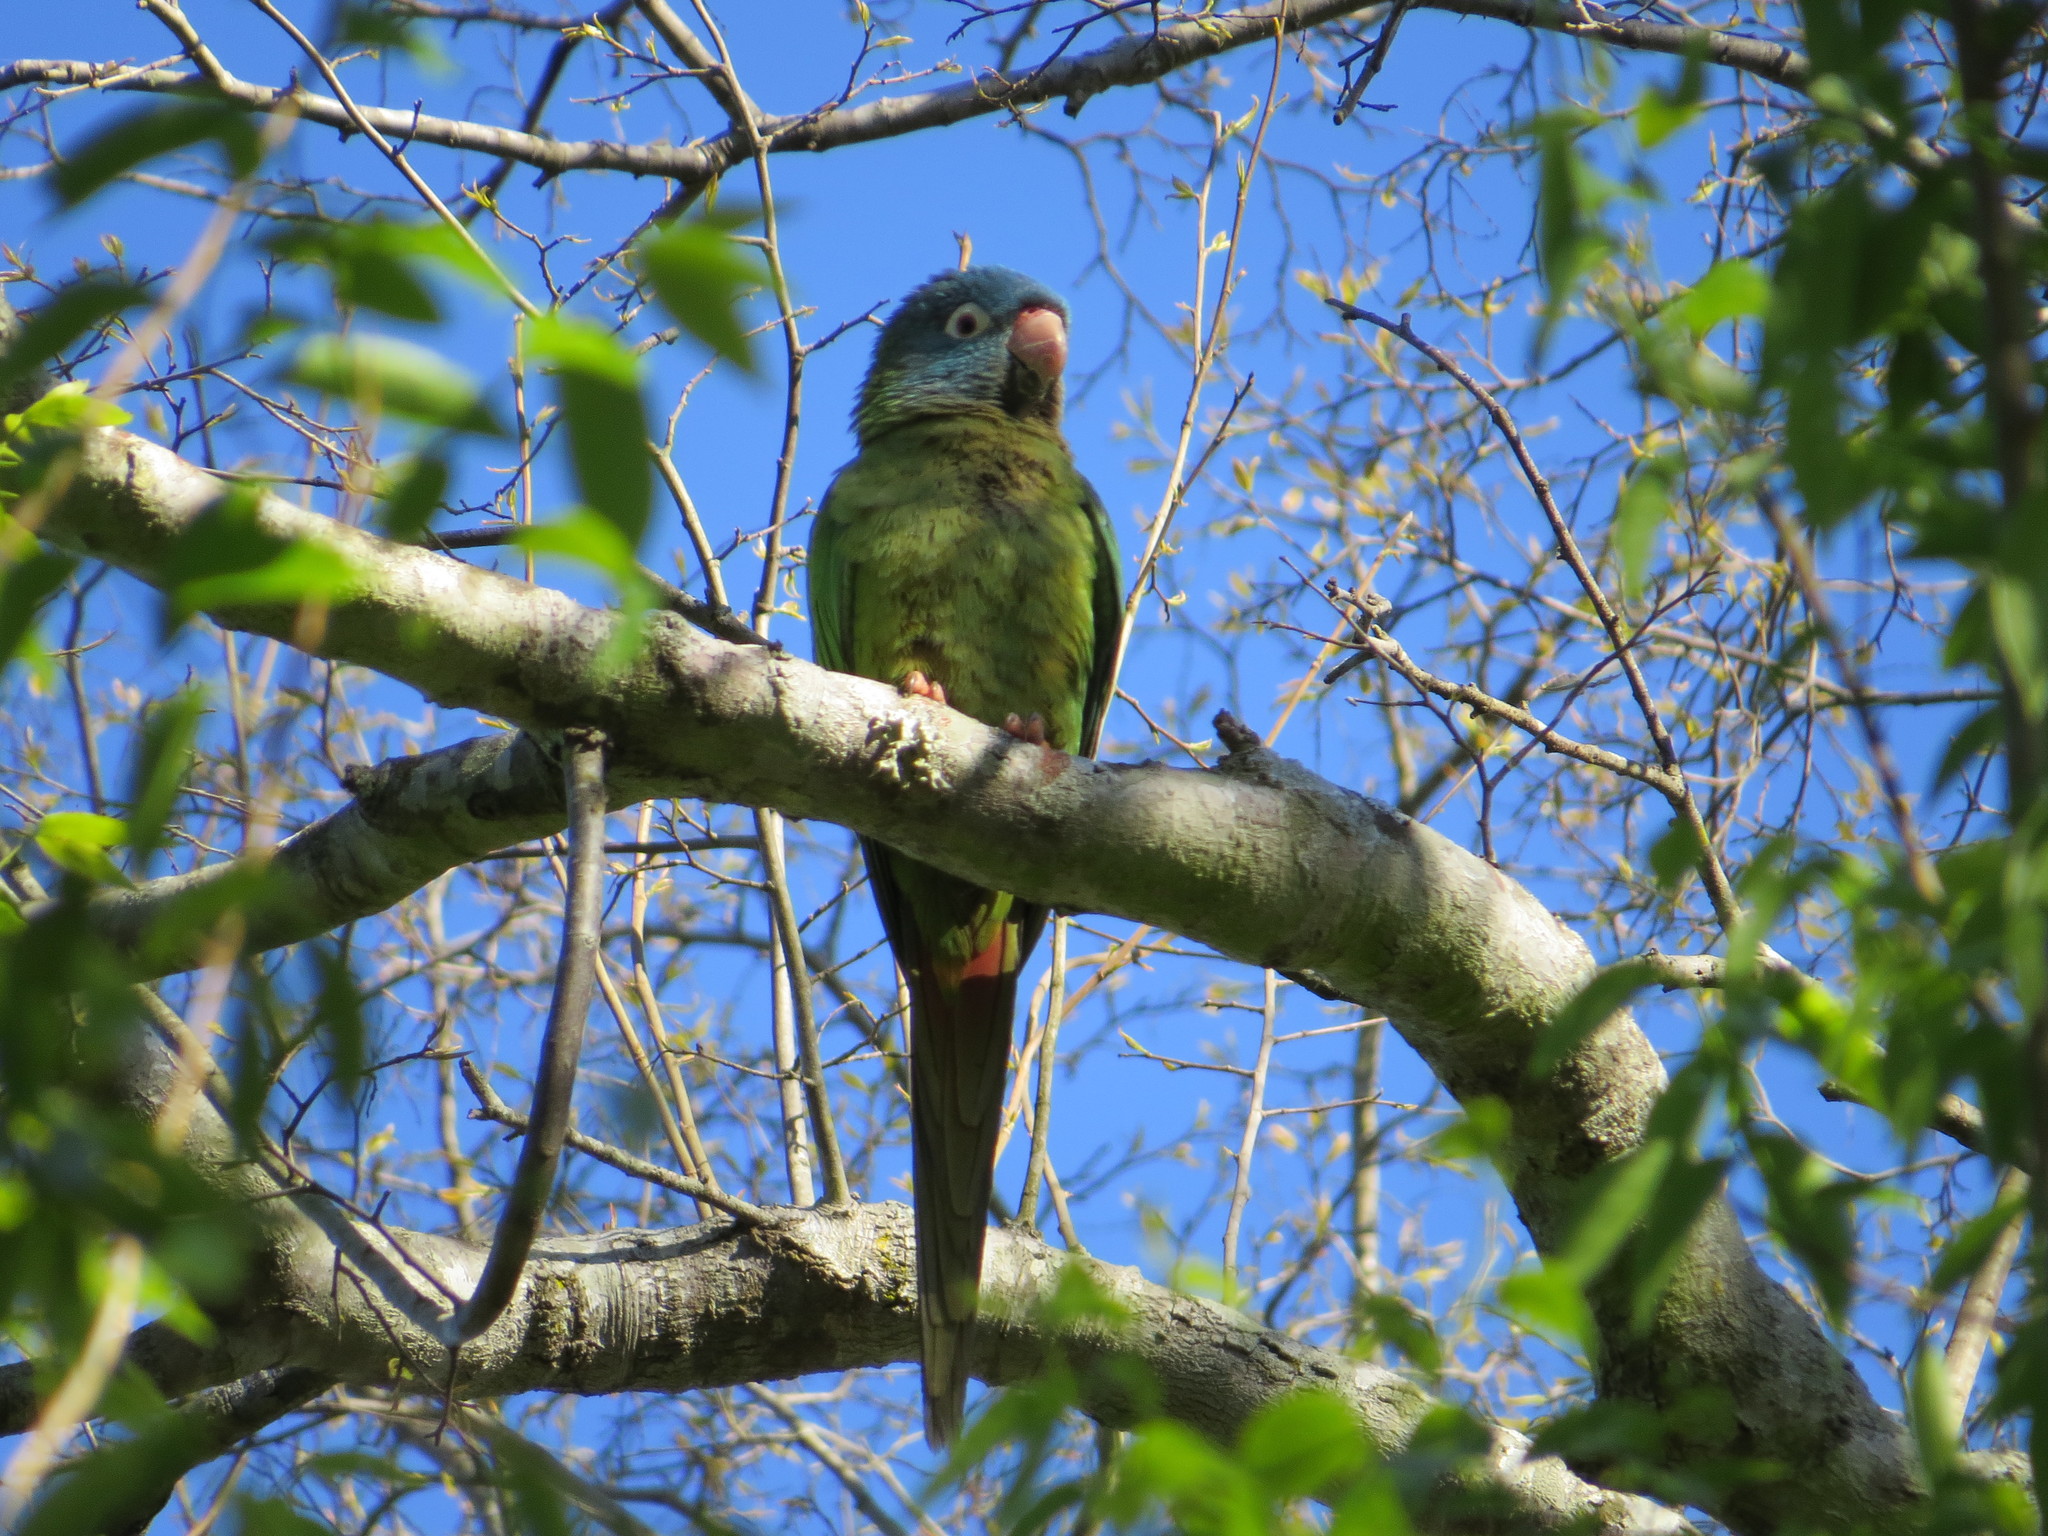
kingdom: Animalia
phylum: Chordata
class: Aves
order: Psittaciformes
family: Psittacidae
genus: Aratinga
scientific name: Aratinga acuticaudata
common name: Blue-crowned parakeet
